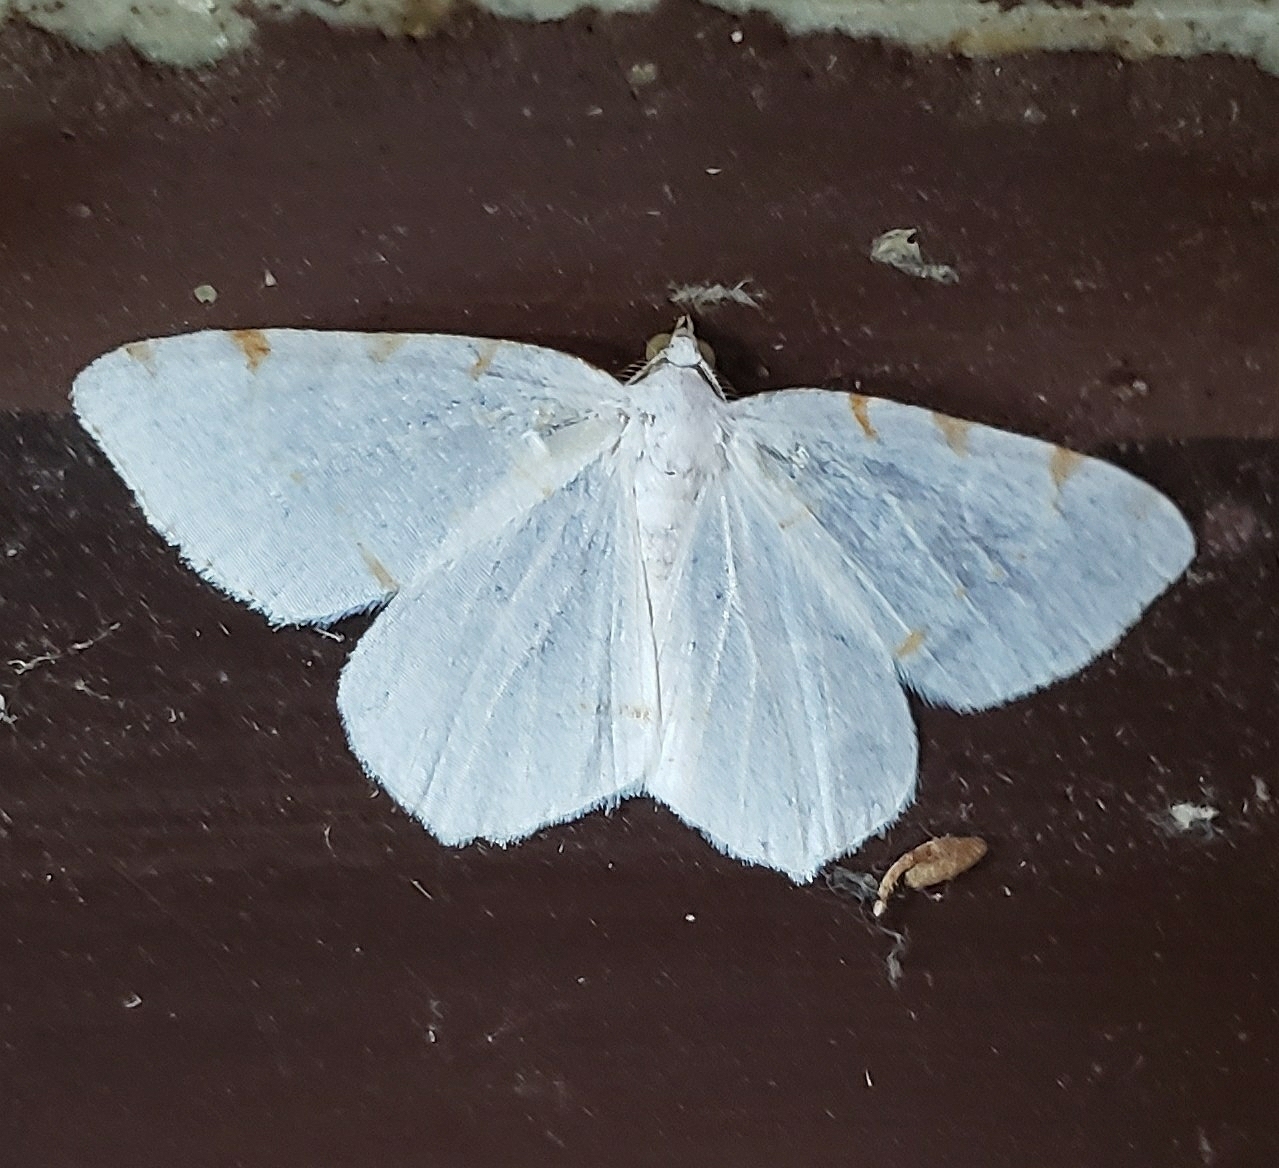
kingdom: Animalia
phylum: Arthropoda
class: Insecta
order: Lepidoptera
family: Geometridae
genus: Macaria
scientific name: Macaria pustularia
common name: Lesser maple spanworm moth
